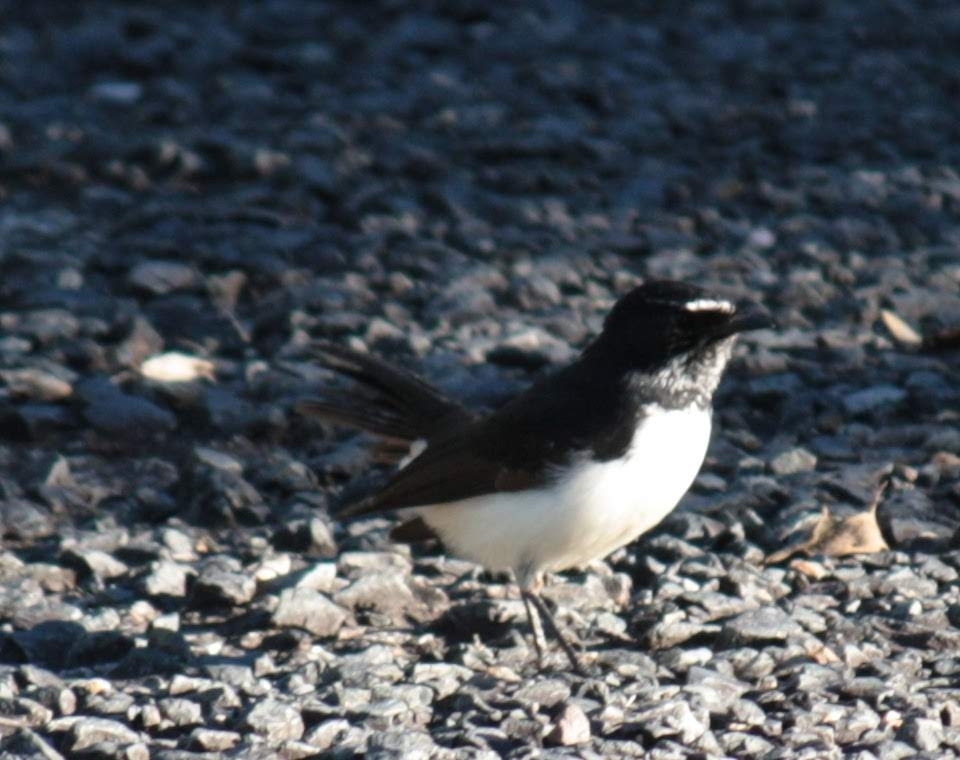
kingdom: Animalia
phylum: Chordata
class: Aves
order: Passeriformes
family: Rhipiduridae
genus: Rhipidura
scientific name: Rhipidura leucophrys
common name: Willie wagtail
